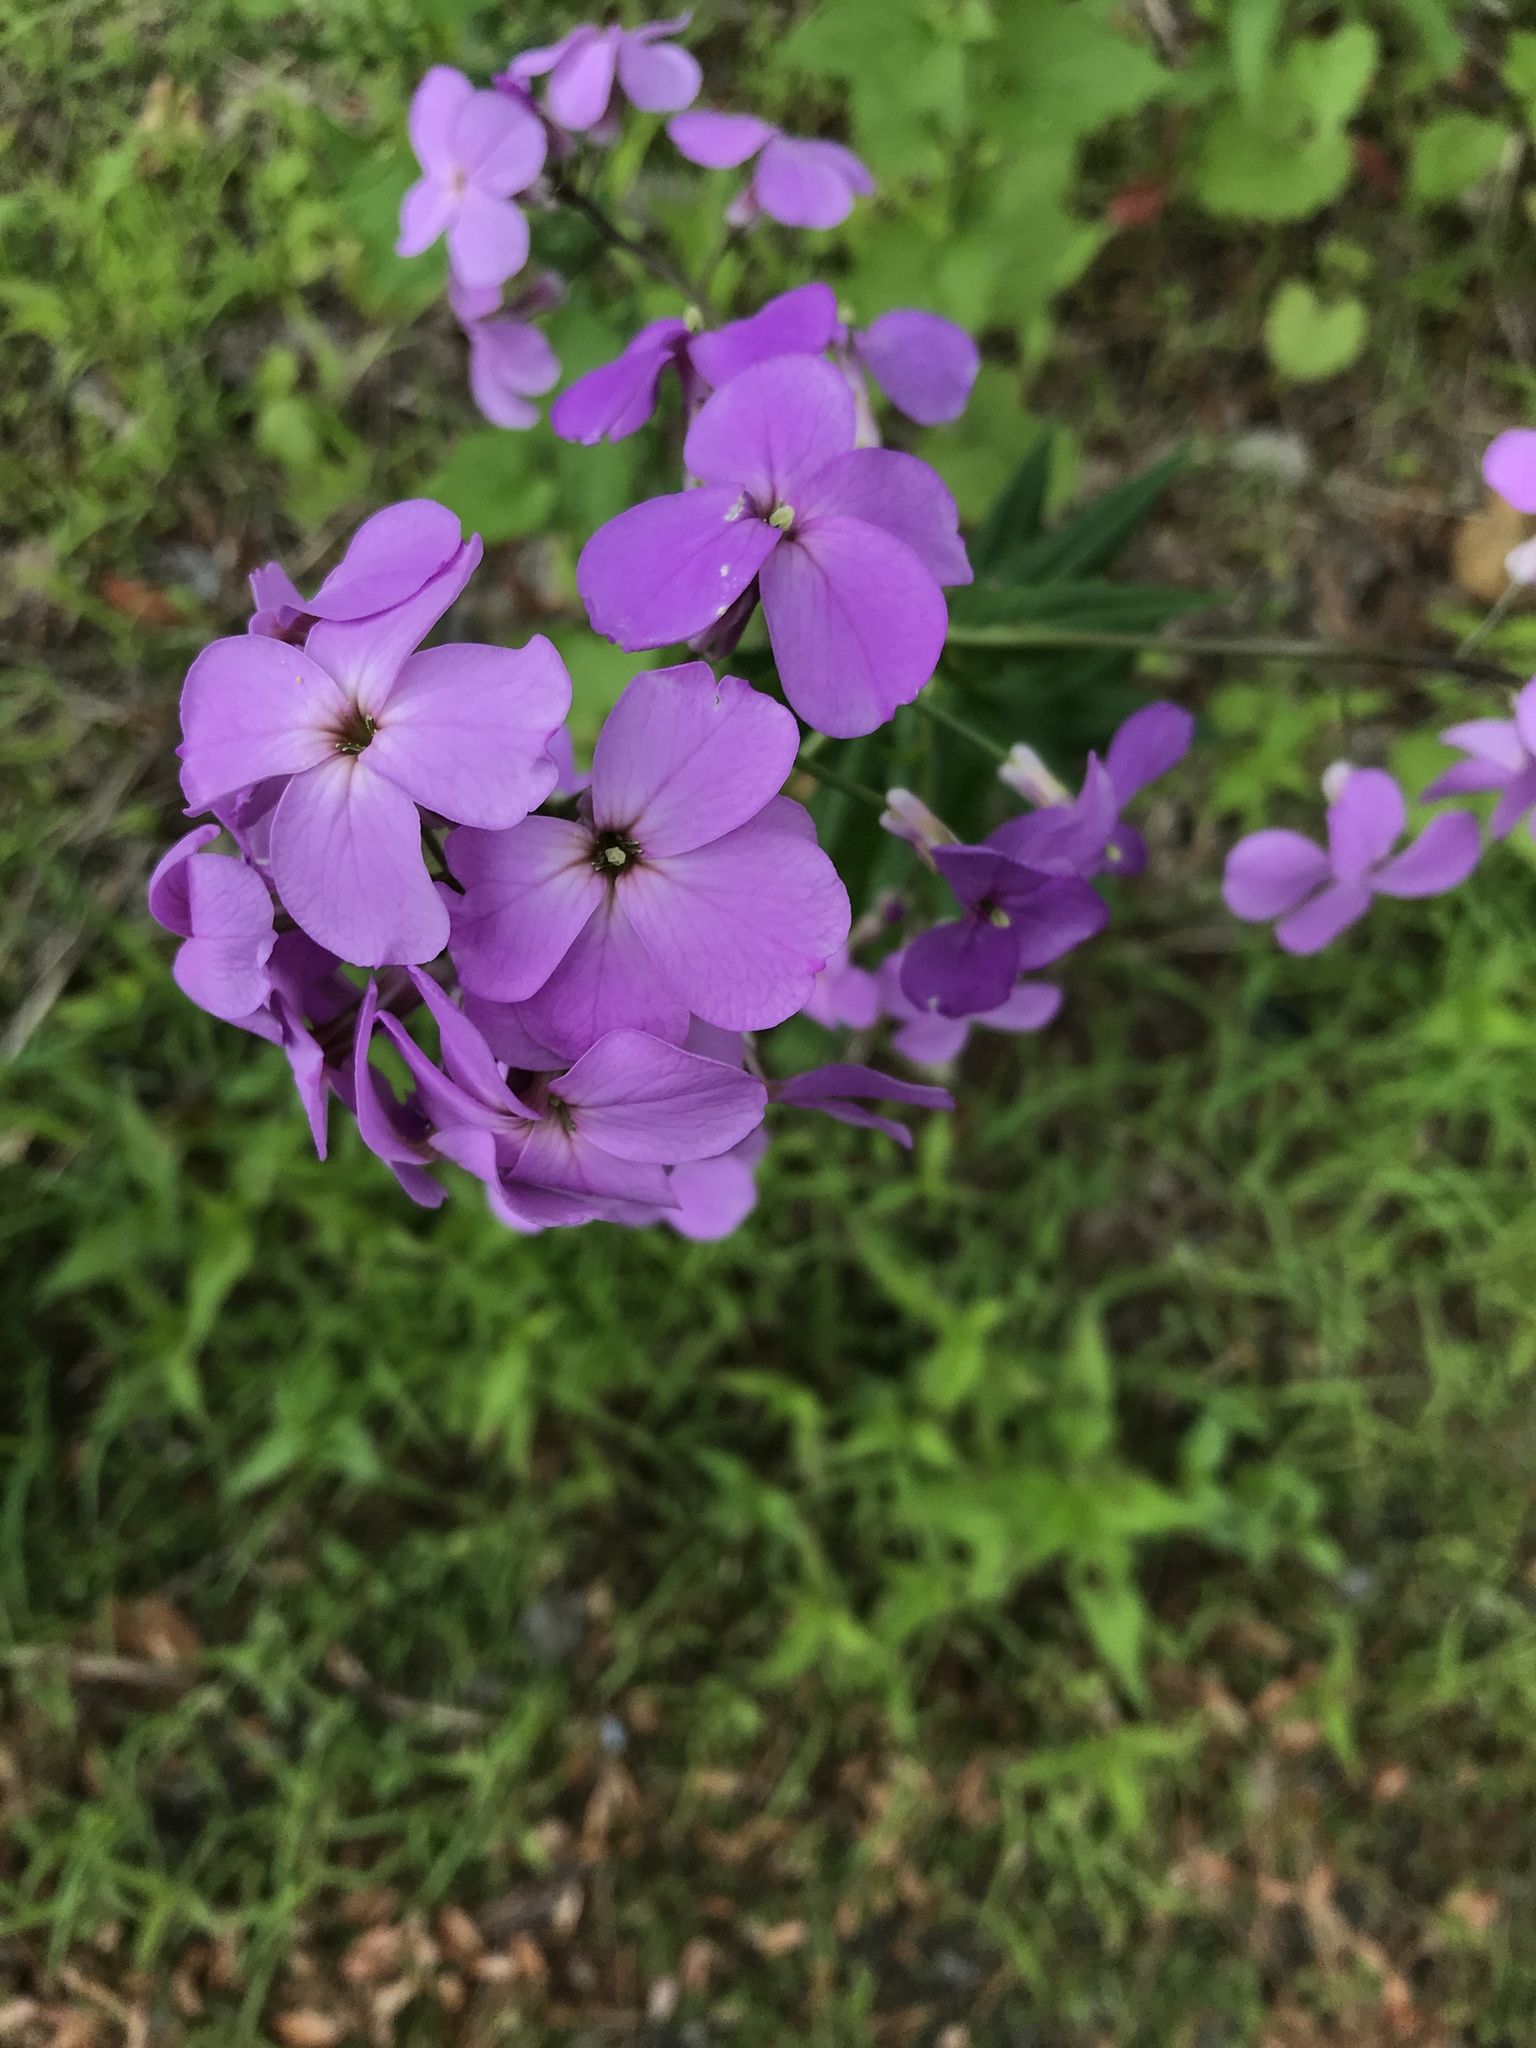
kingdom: Plantae
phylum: Tracheophyta
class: Magnoliopsida
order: Brassicales
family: Brassicaceae
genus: Hesperis
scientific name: Hesperis matronalis
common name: Dame's-violet
